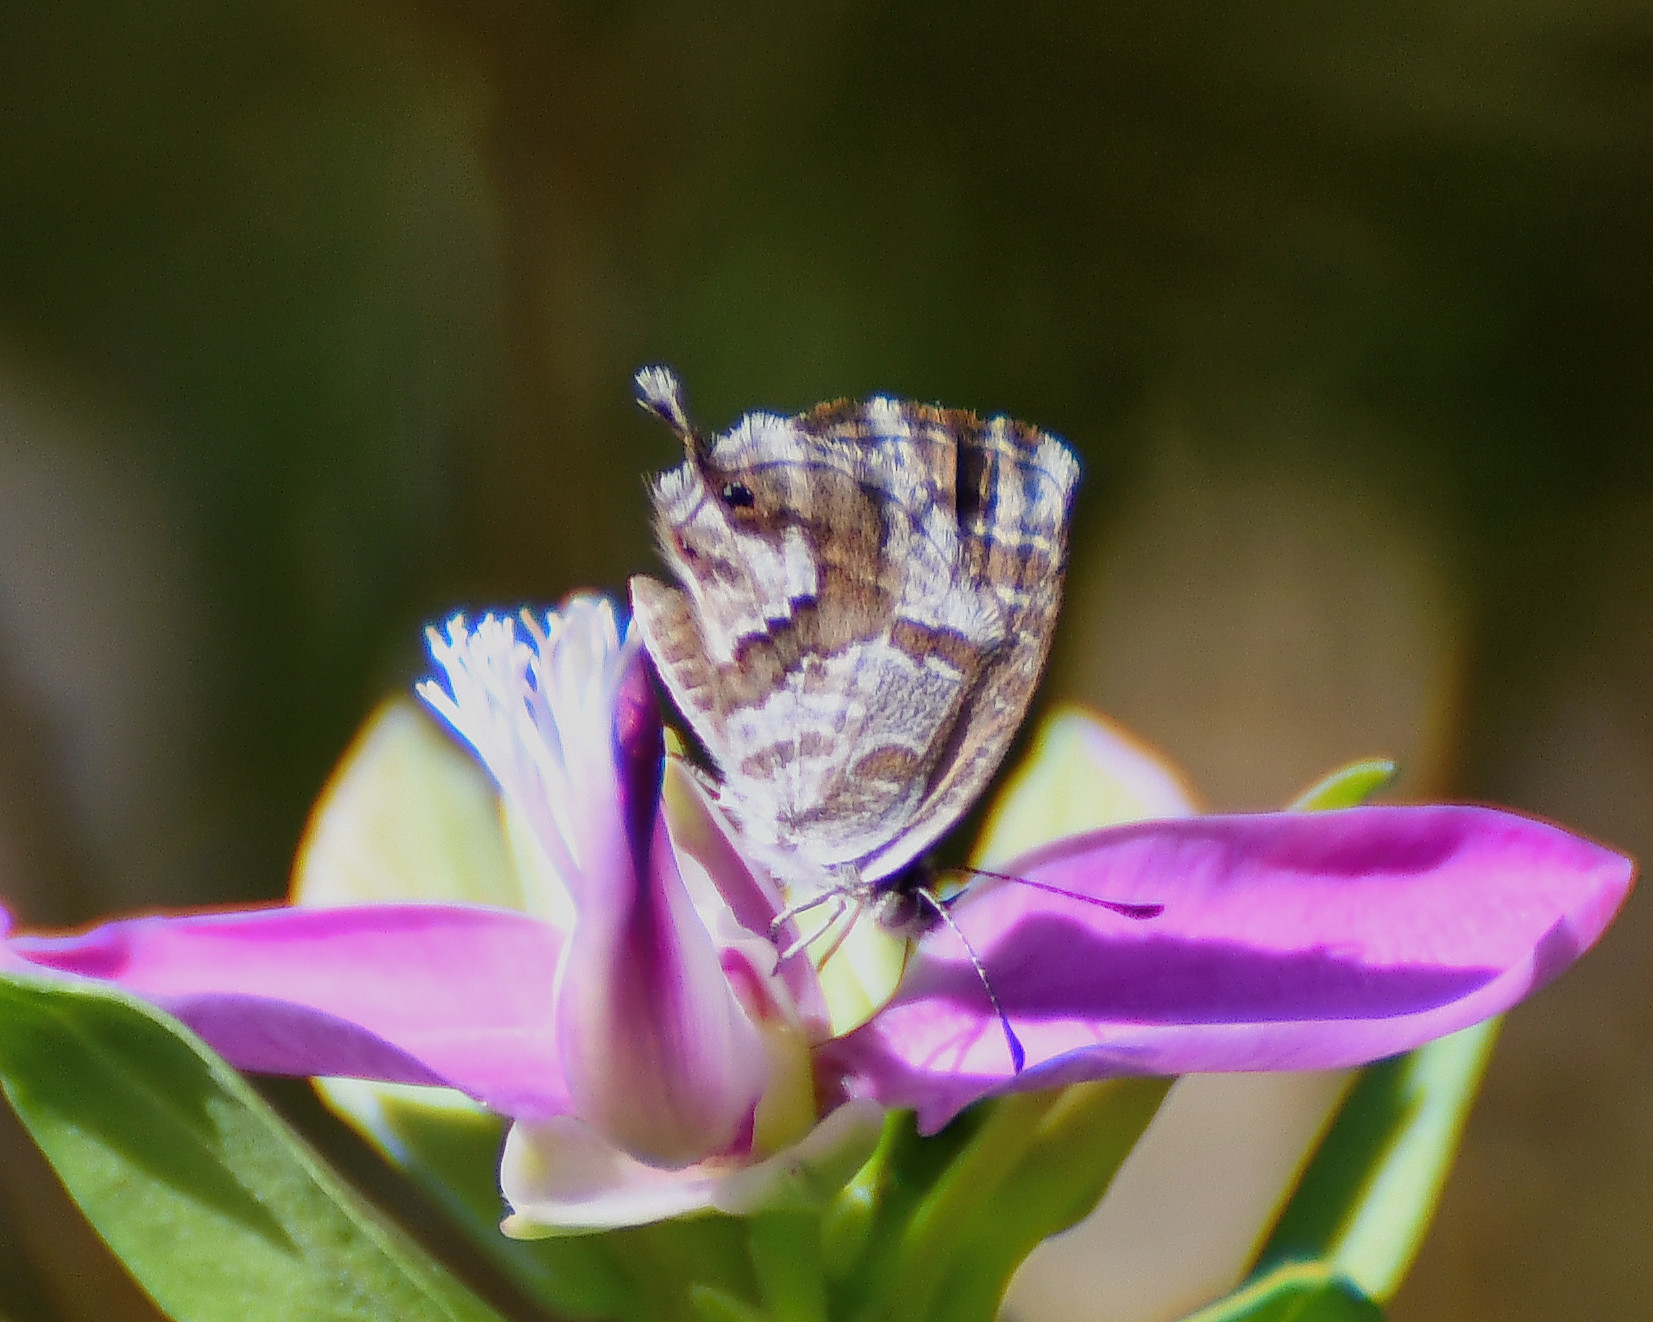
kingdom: Animalia
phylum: Arthropoda
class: Insecta
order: Lepidoptera
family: Lycaenidae
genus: Cacyreus
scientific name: Cacyreus marshalli
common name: Geranium bronze
